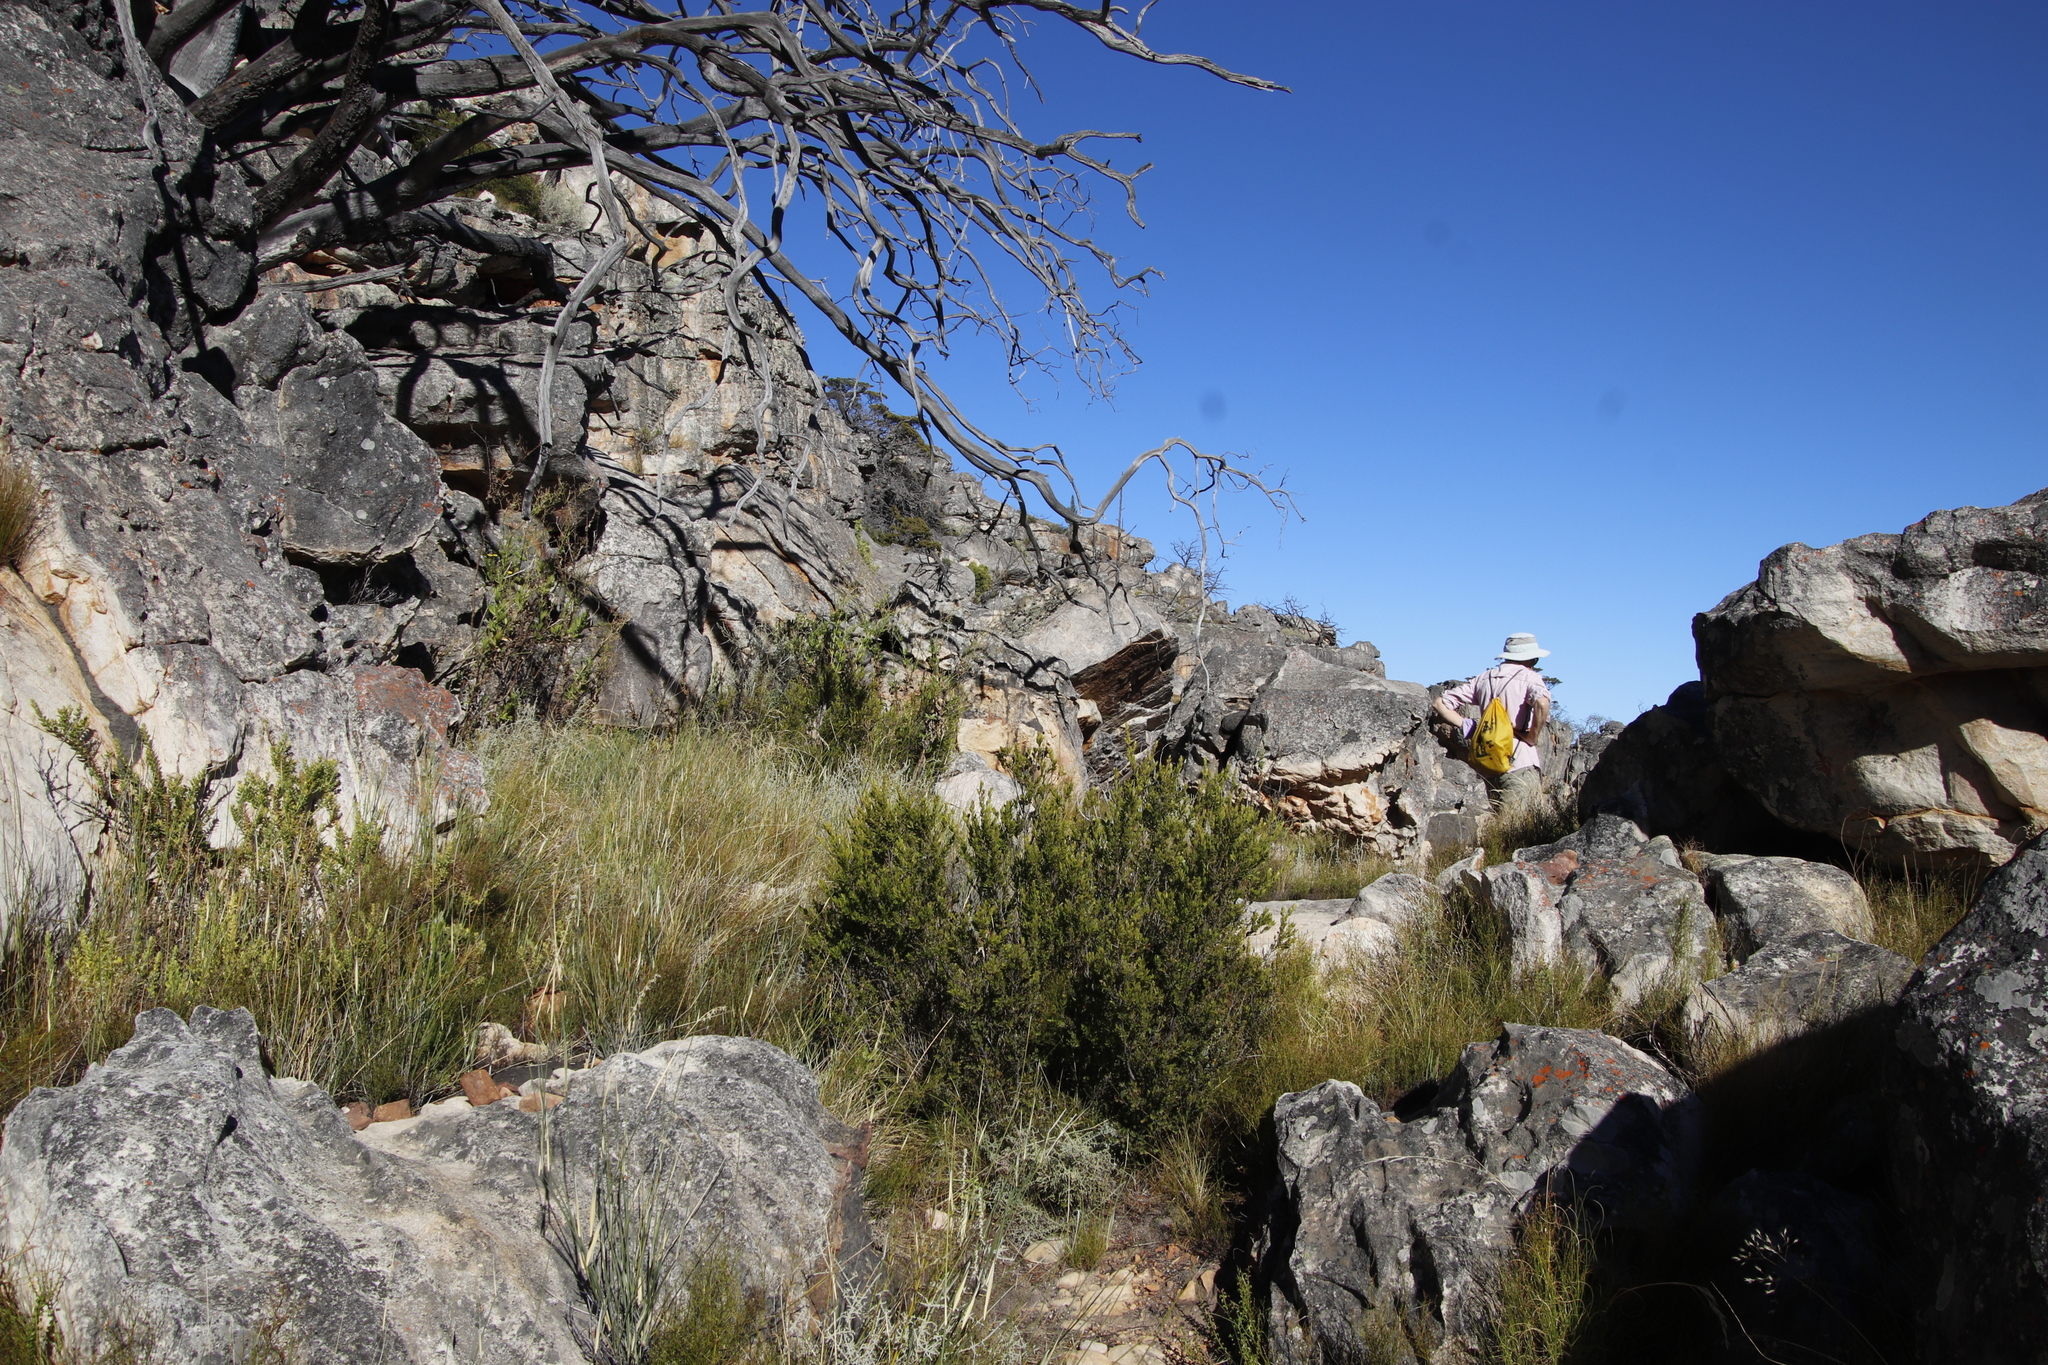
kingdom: Plantae
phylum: Tracheophyta
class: Magnoliopsida
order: Ericales
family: Ebenaceae
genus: Diospyros
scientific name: Diospyros glabra
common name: Fynbos star apple
